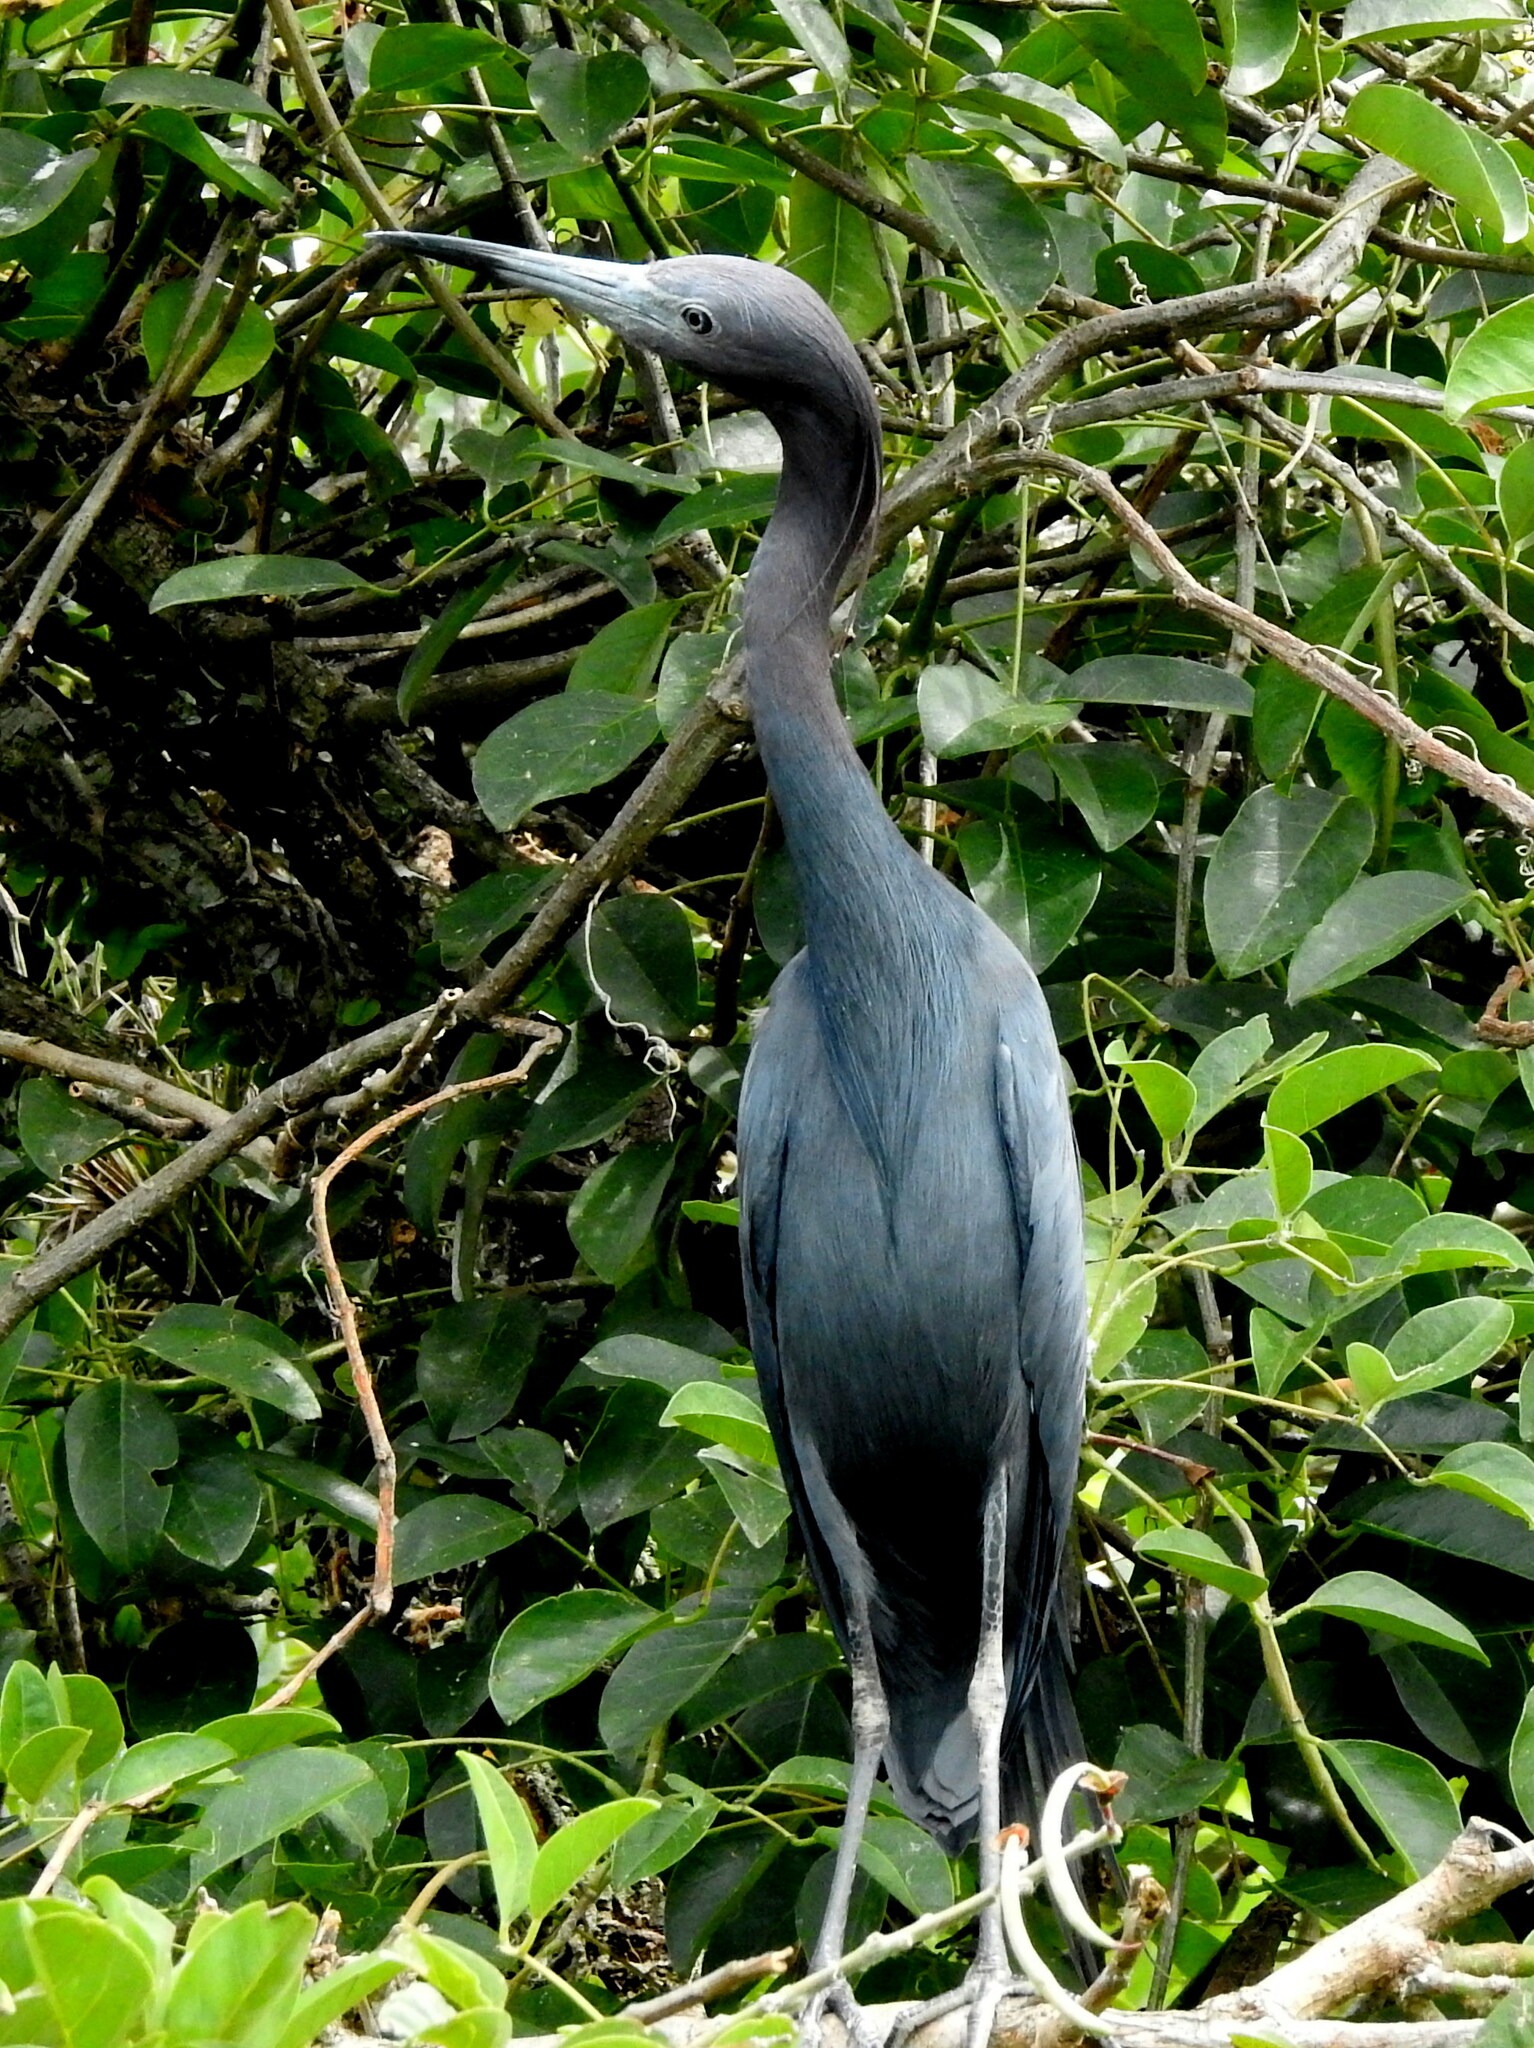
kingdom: Animalia
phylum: Chordata
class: Aves
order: Pelecaniformes
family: Ardeidae
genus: Egretta
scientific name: Egretta caerulea
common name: Little blue heron
